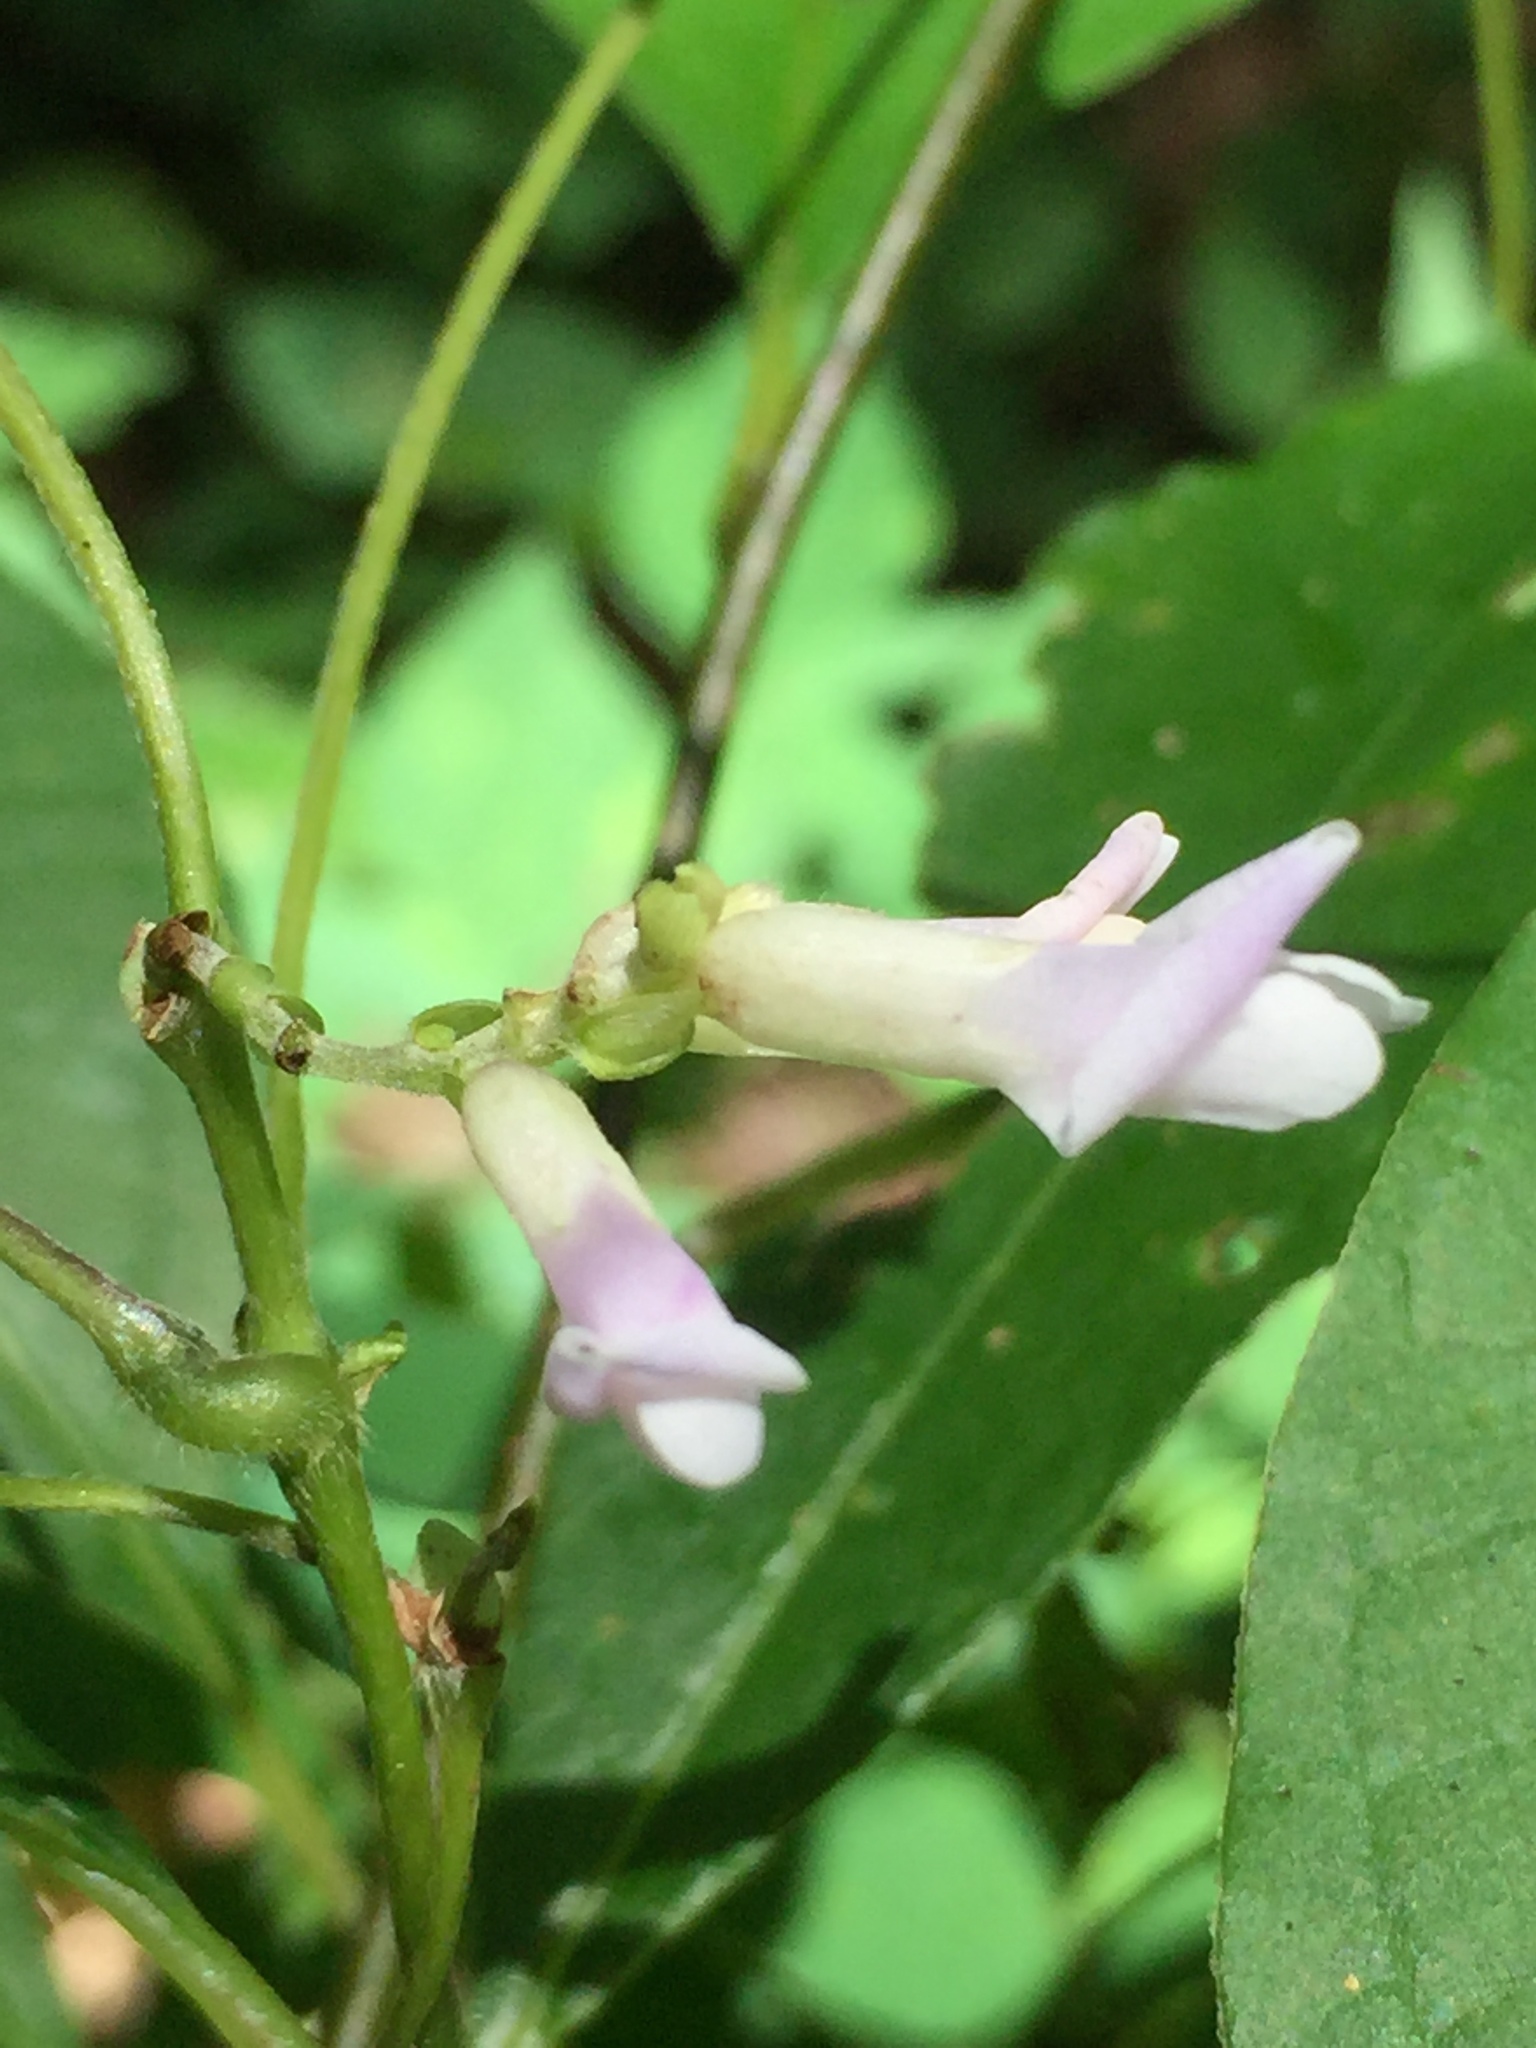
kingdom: Plantae
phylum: Tracheophyta
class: Magnoliopsida
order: Fabales
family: Fabaceae
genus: Amphicarpaea
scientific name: Amphicarpaea bracteata
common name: American hog peanut
